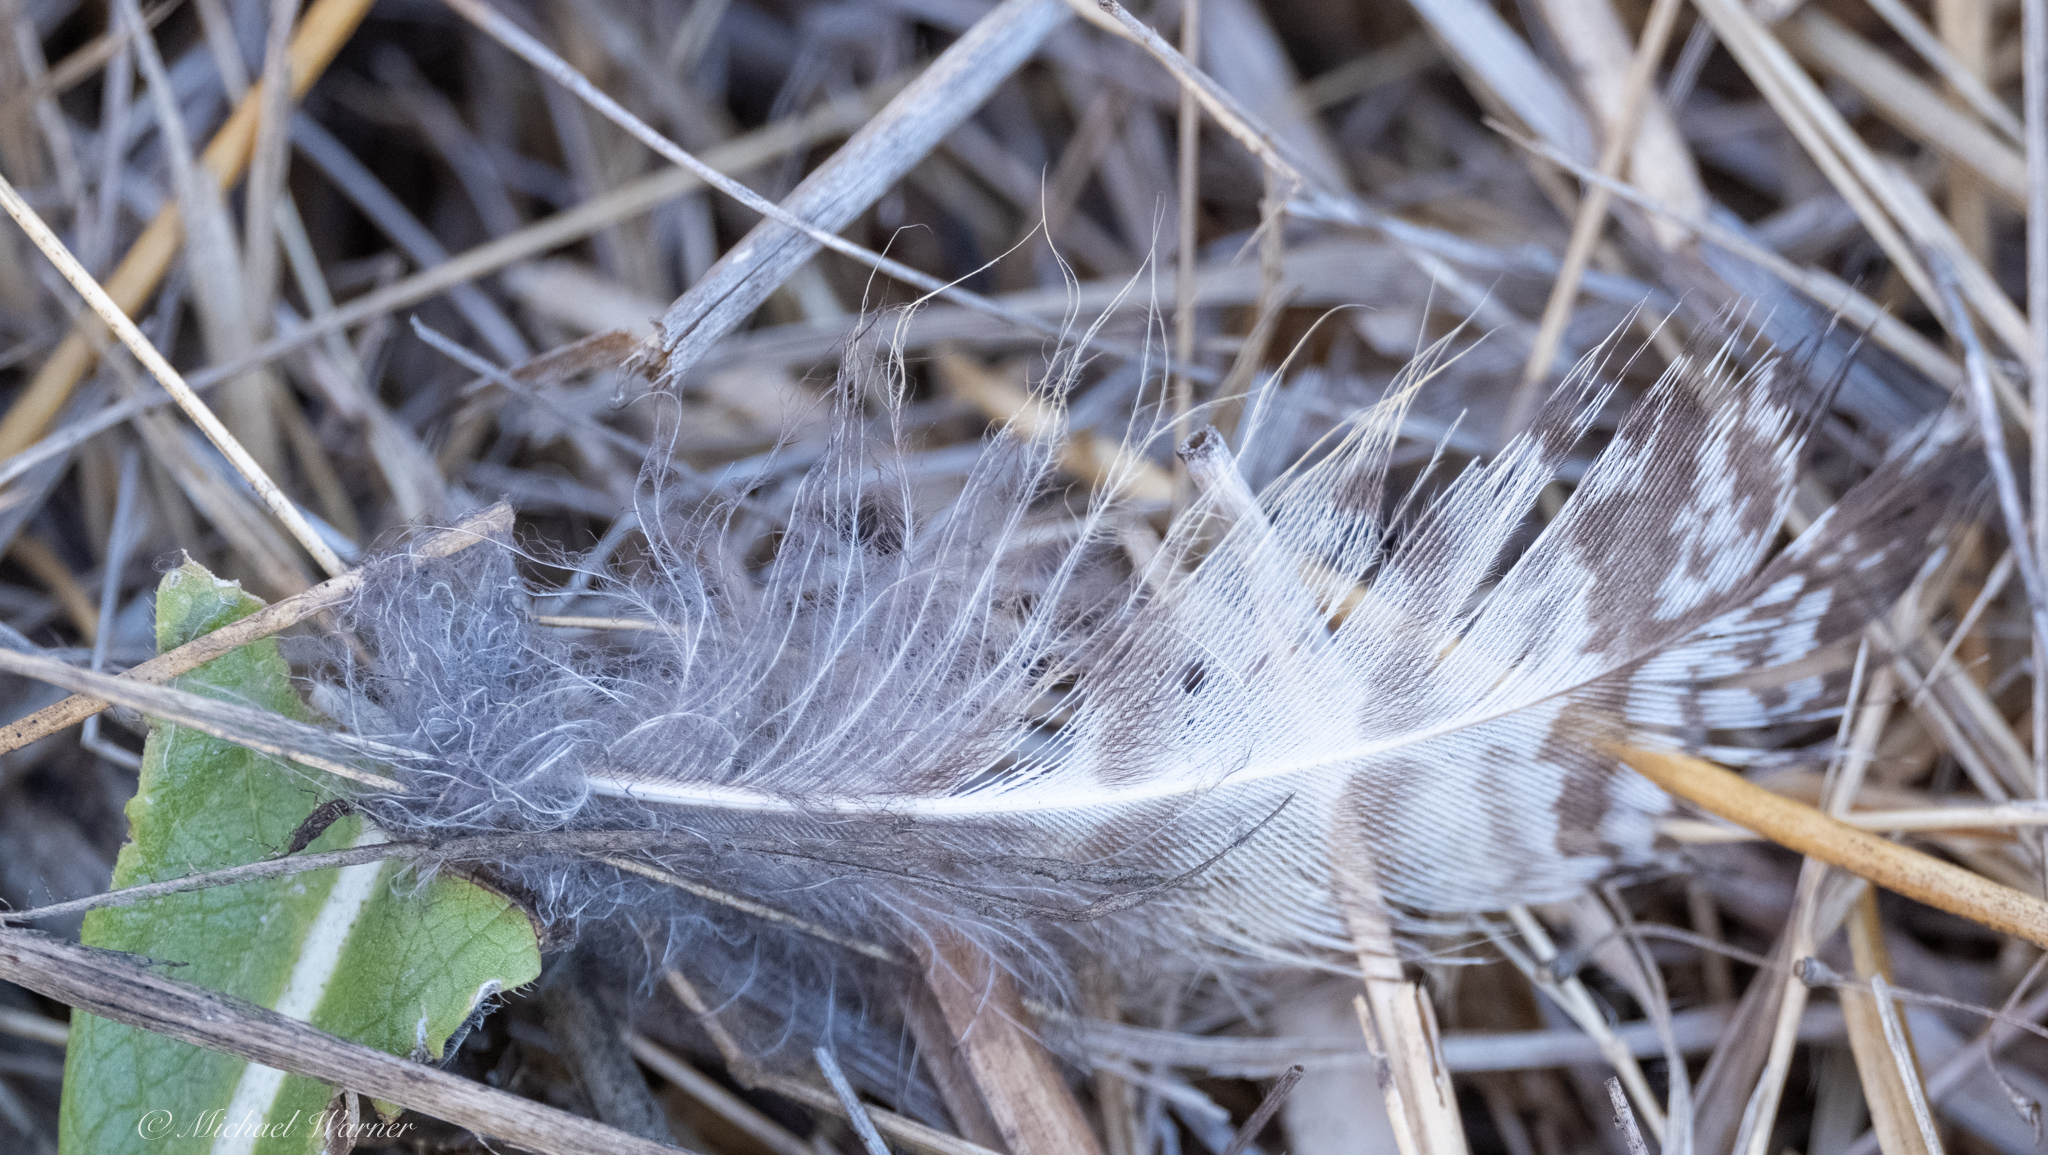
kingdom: Animalia
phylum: Chordata
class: Aves
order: Strigiformes
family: Strigidae
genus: Bubo
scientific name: Bubo virginianus
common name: Great horned owl
